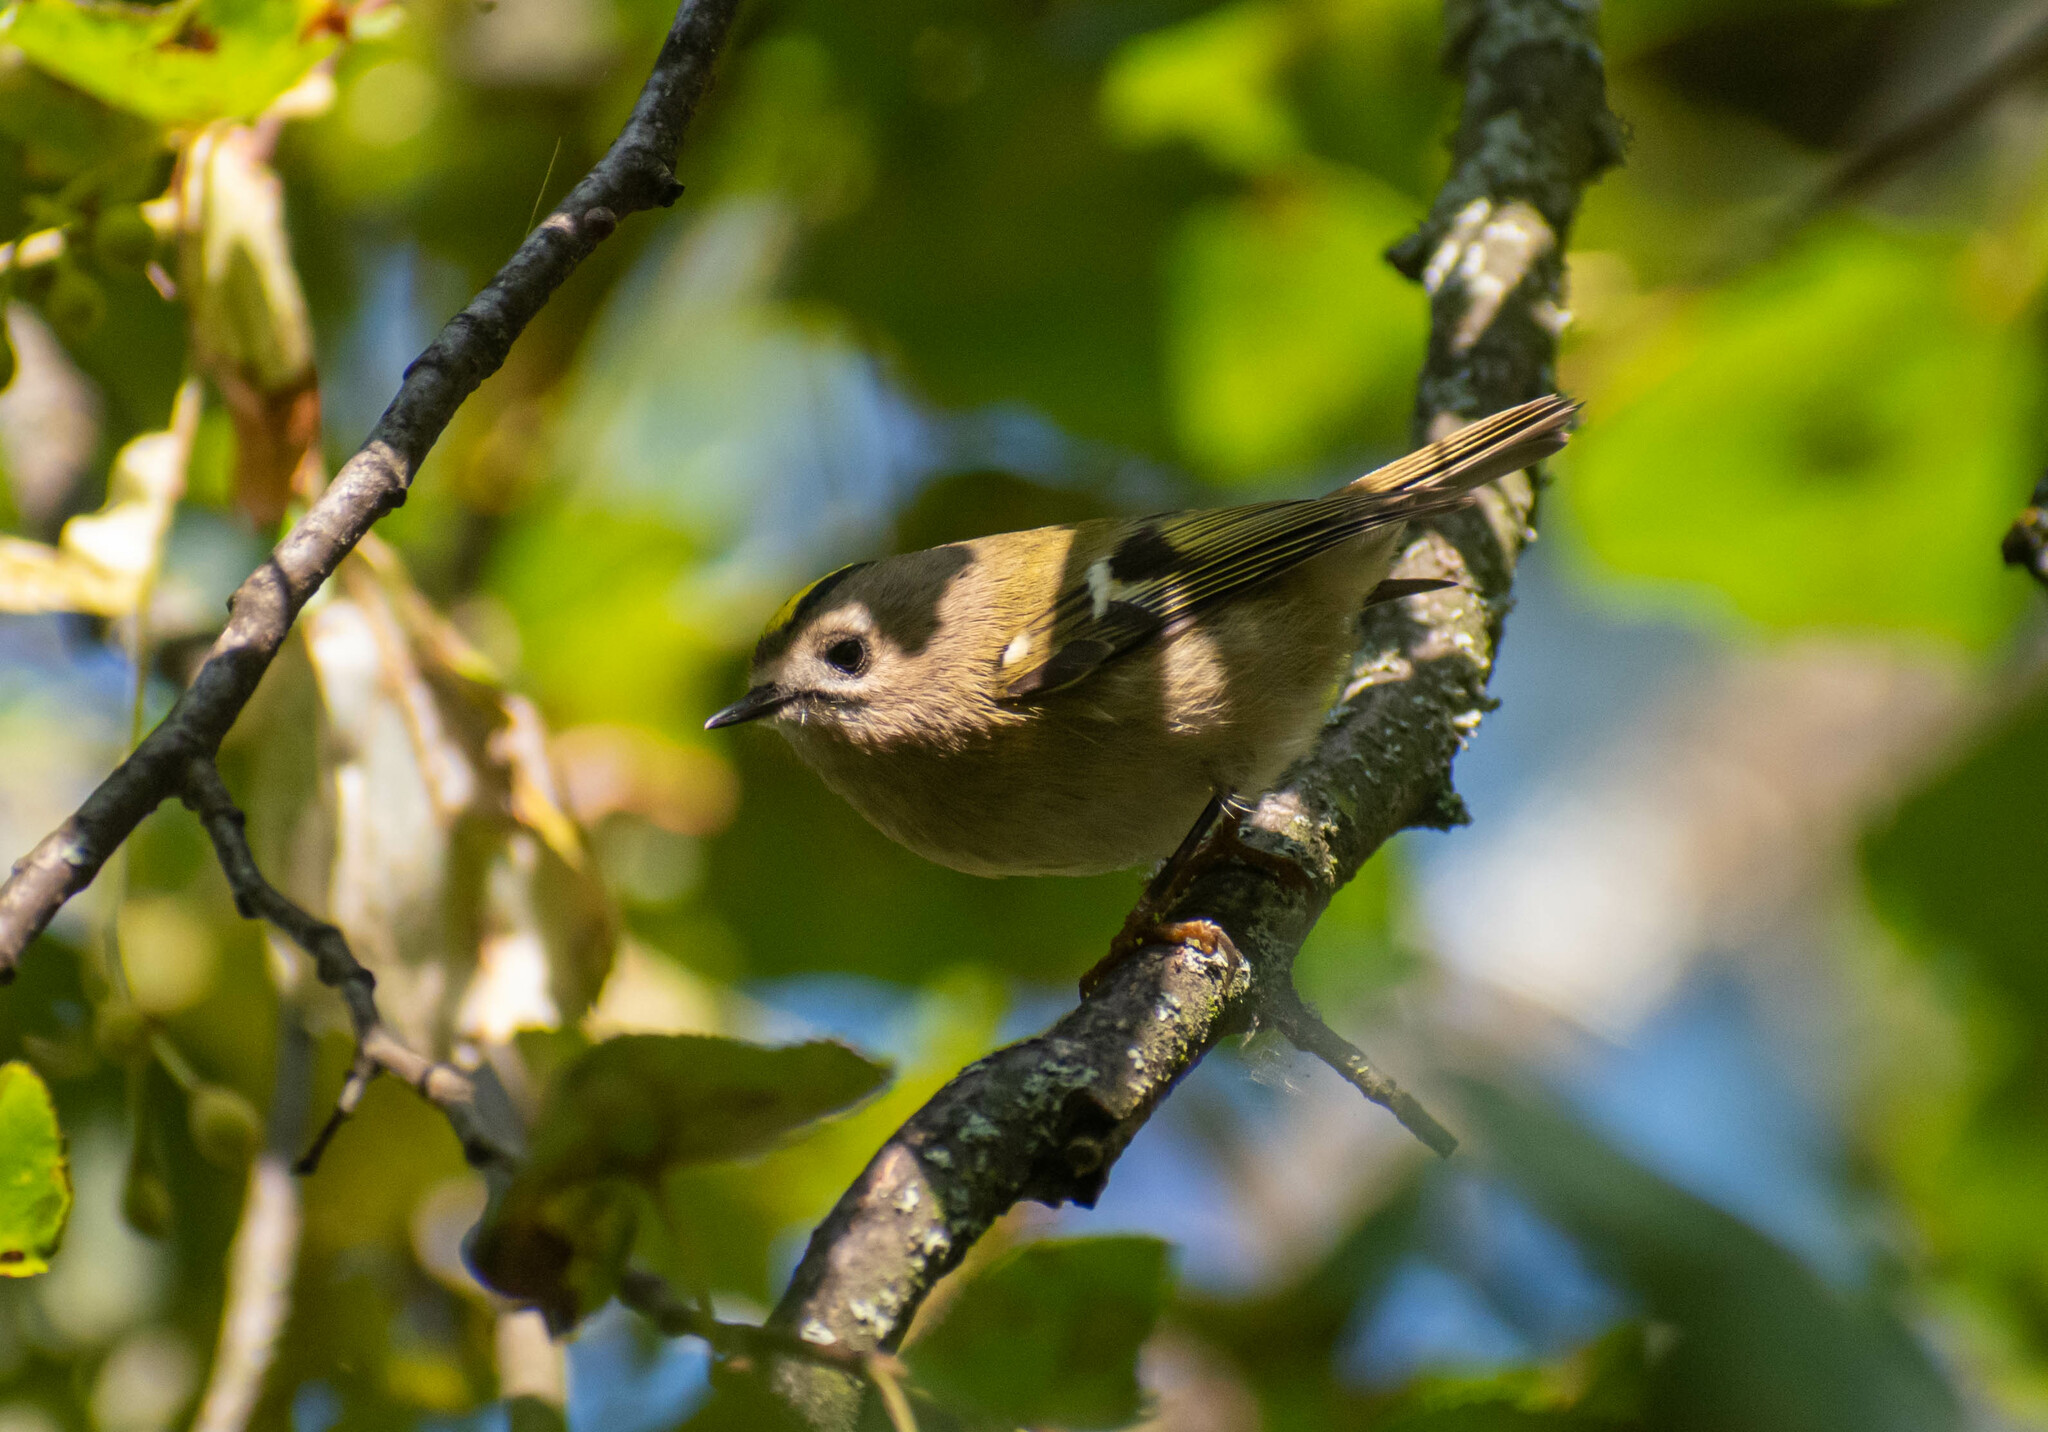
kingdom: Animalia
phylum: Chordata
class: Aves
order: Passeriformes
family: Regulidae
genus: Regulus
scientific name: Regulus regulus
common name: Goldcrest
